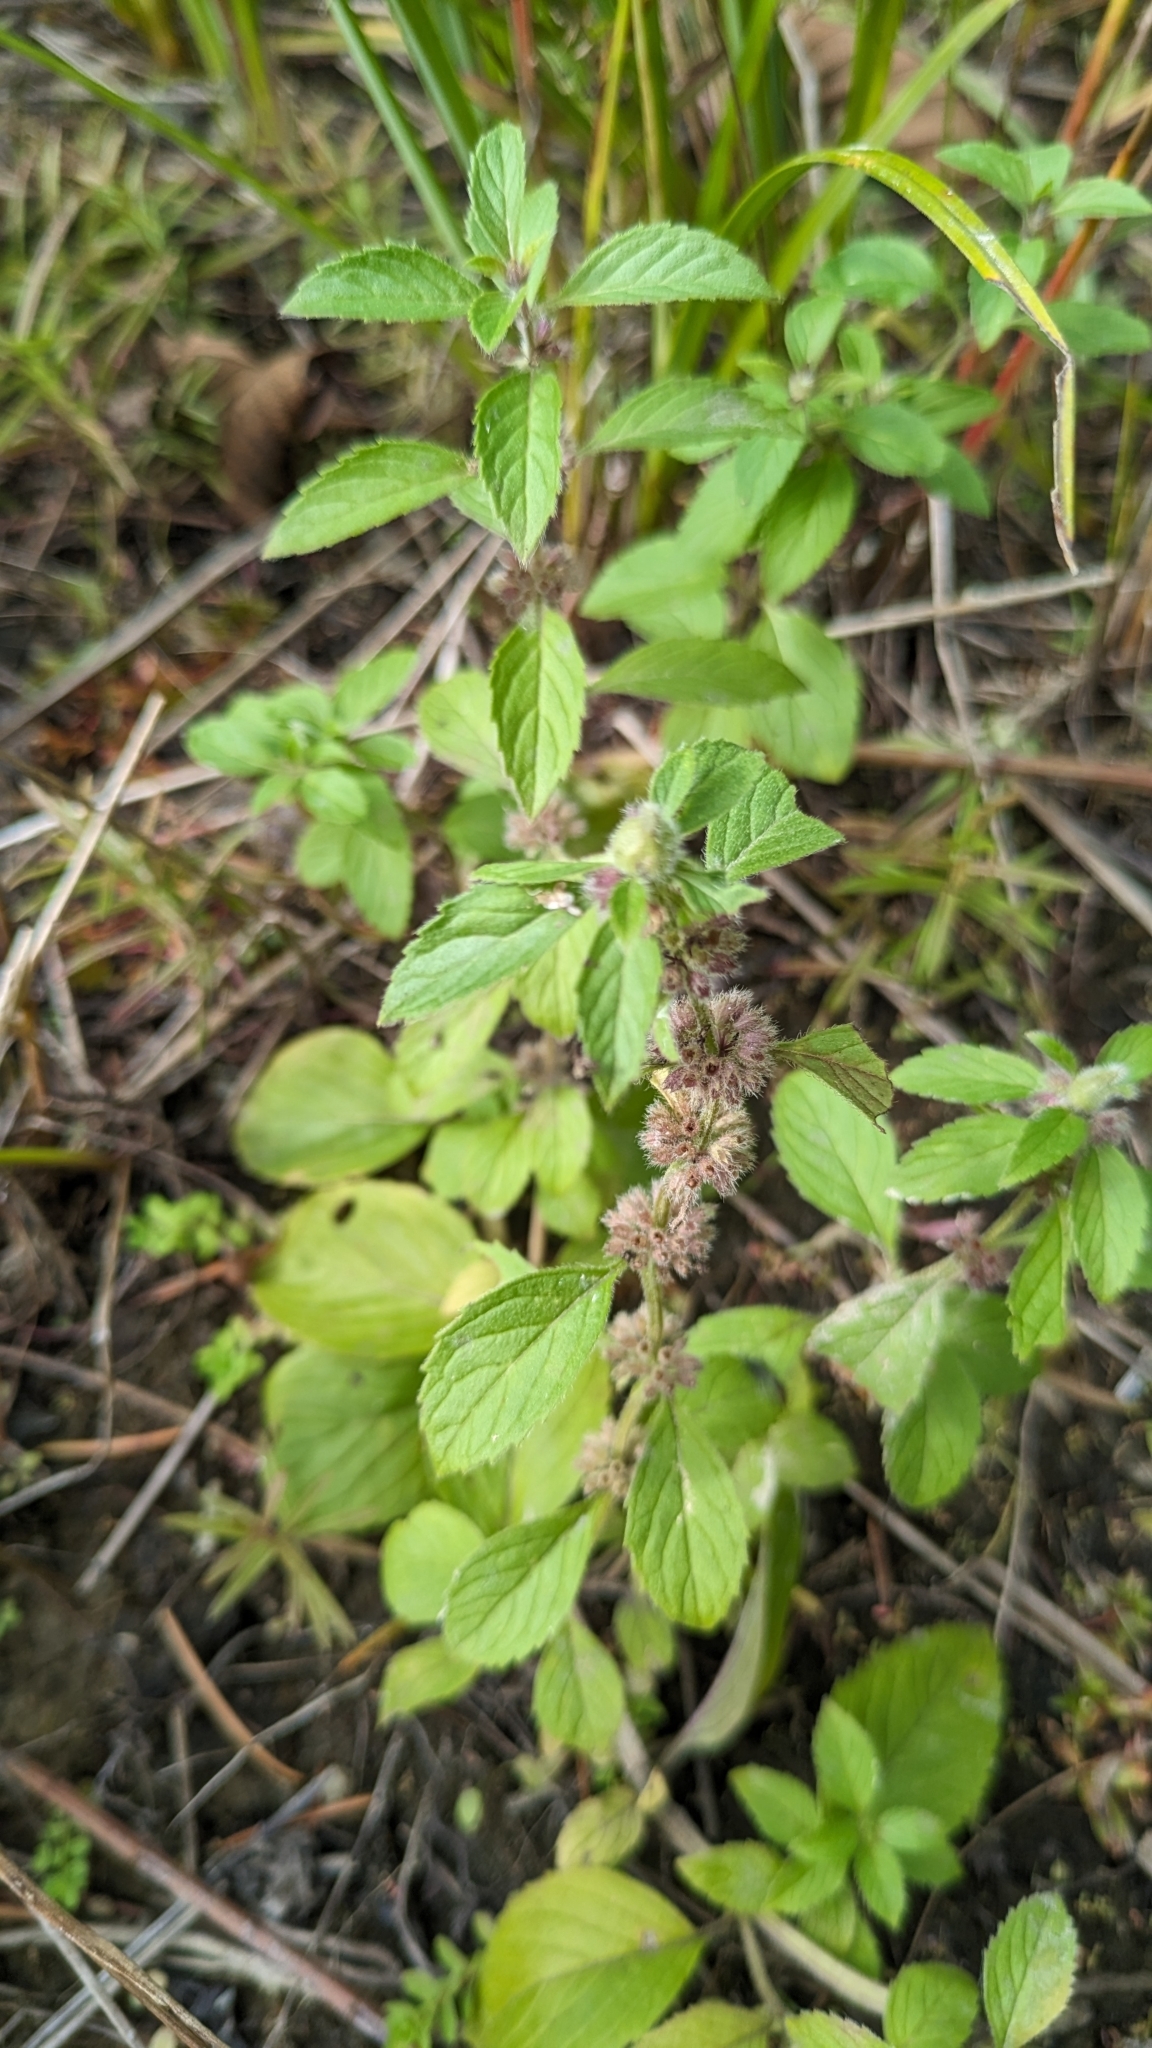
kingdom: Plantae
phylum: Tracheophyta
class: Magnoliopsida
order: Lamiales
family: Lamiaceae
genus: Mentha
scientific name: Mentha canadensis
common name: American corn mint
